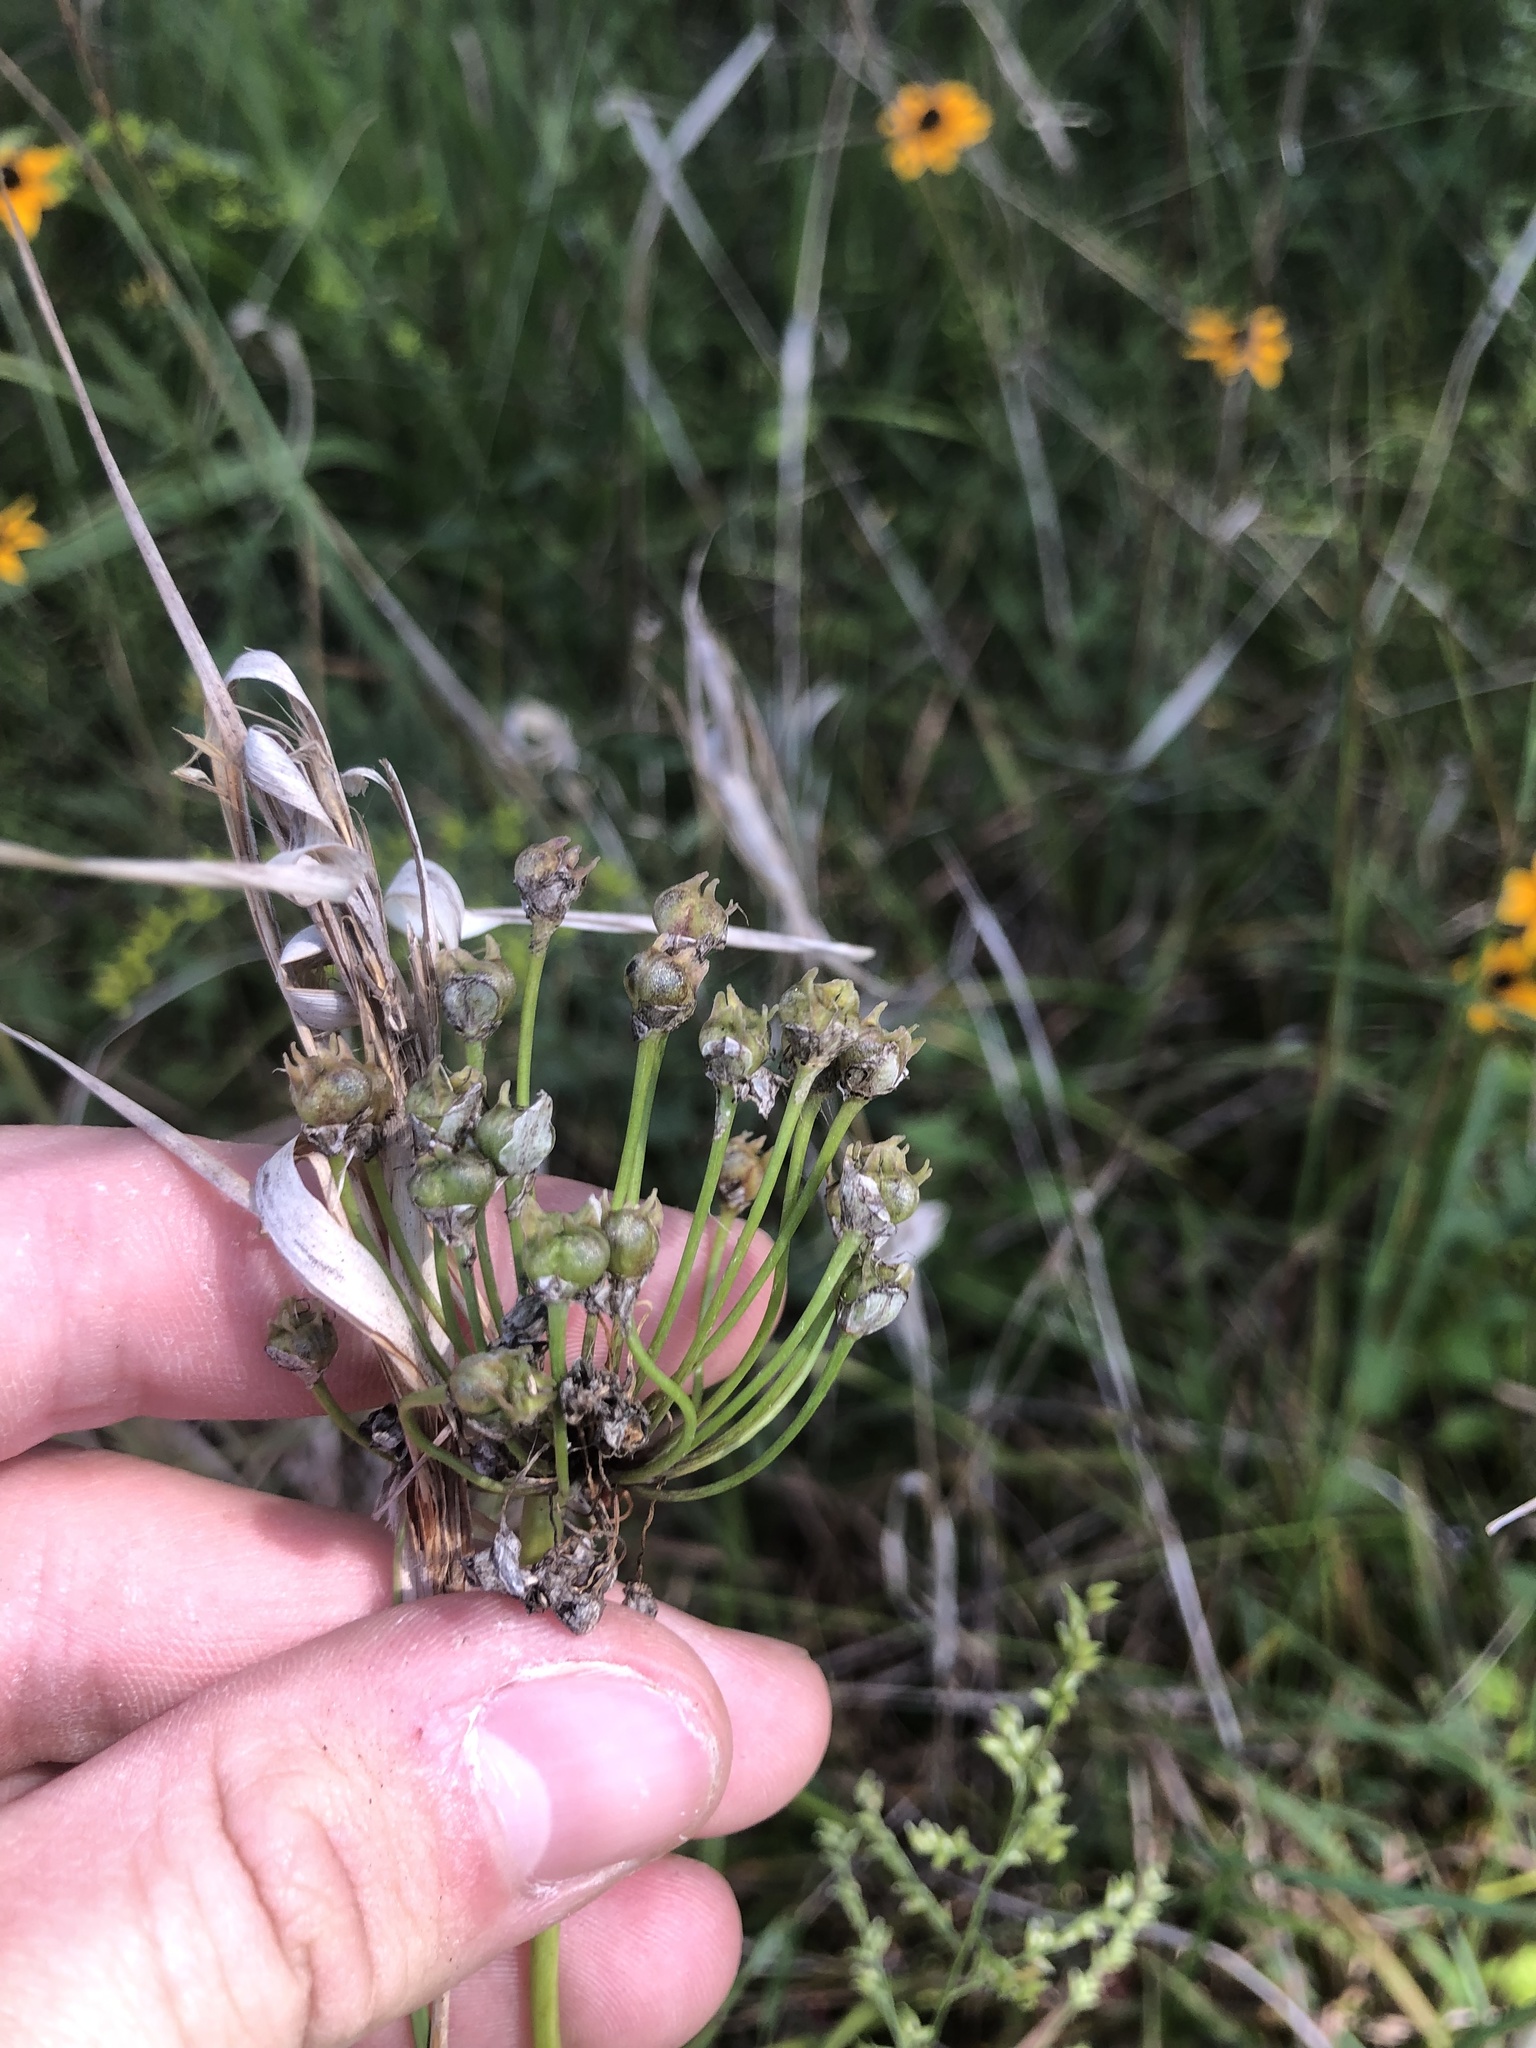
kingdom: Plantae
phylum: Tracheophyta
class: Liliopsida
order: Asparagales
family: Amaryllidaceae
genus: Allium
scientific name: Allium cernuum
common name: Nodding onion
